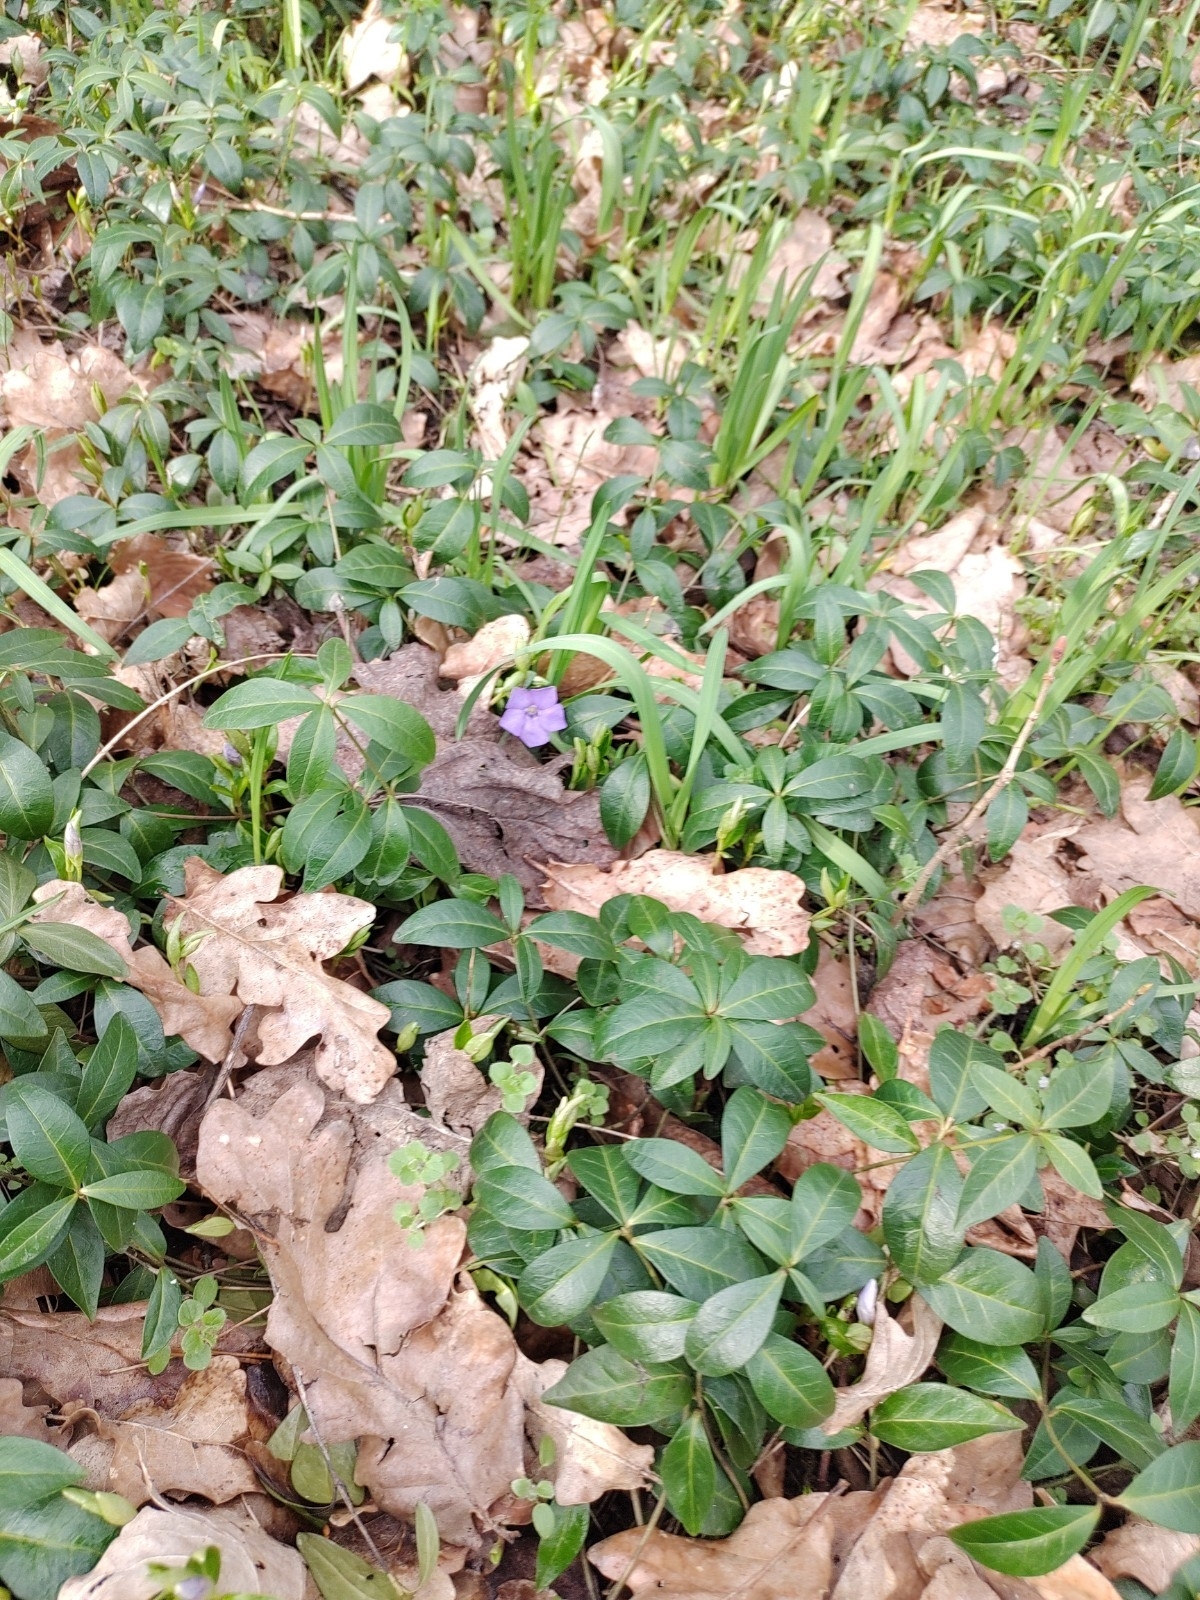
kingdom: Plantae
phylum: Tracheophyta
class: Magnoliopsida
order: Gentianales
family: Apocynaceae
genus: Vinca
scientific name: Vinca minor
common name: Lesser periwinkle
